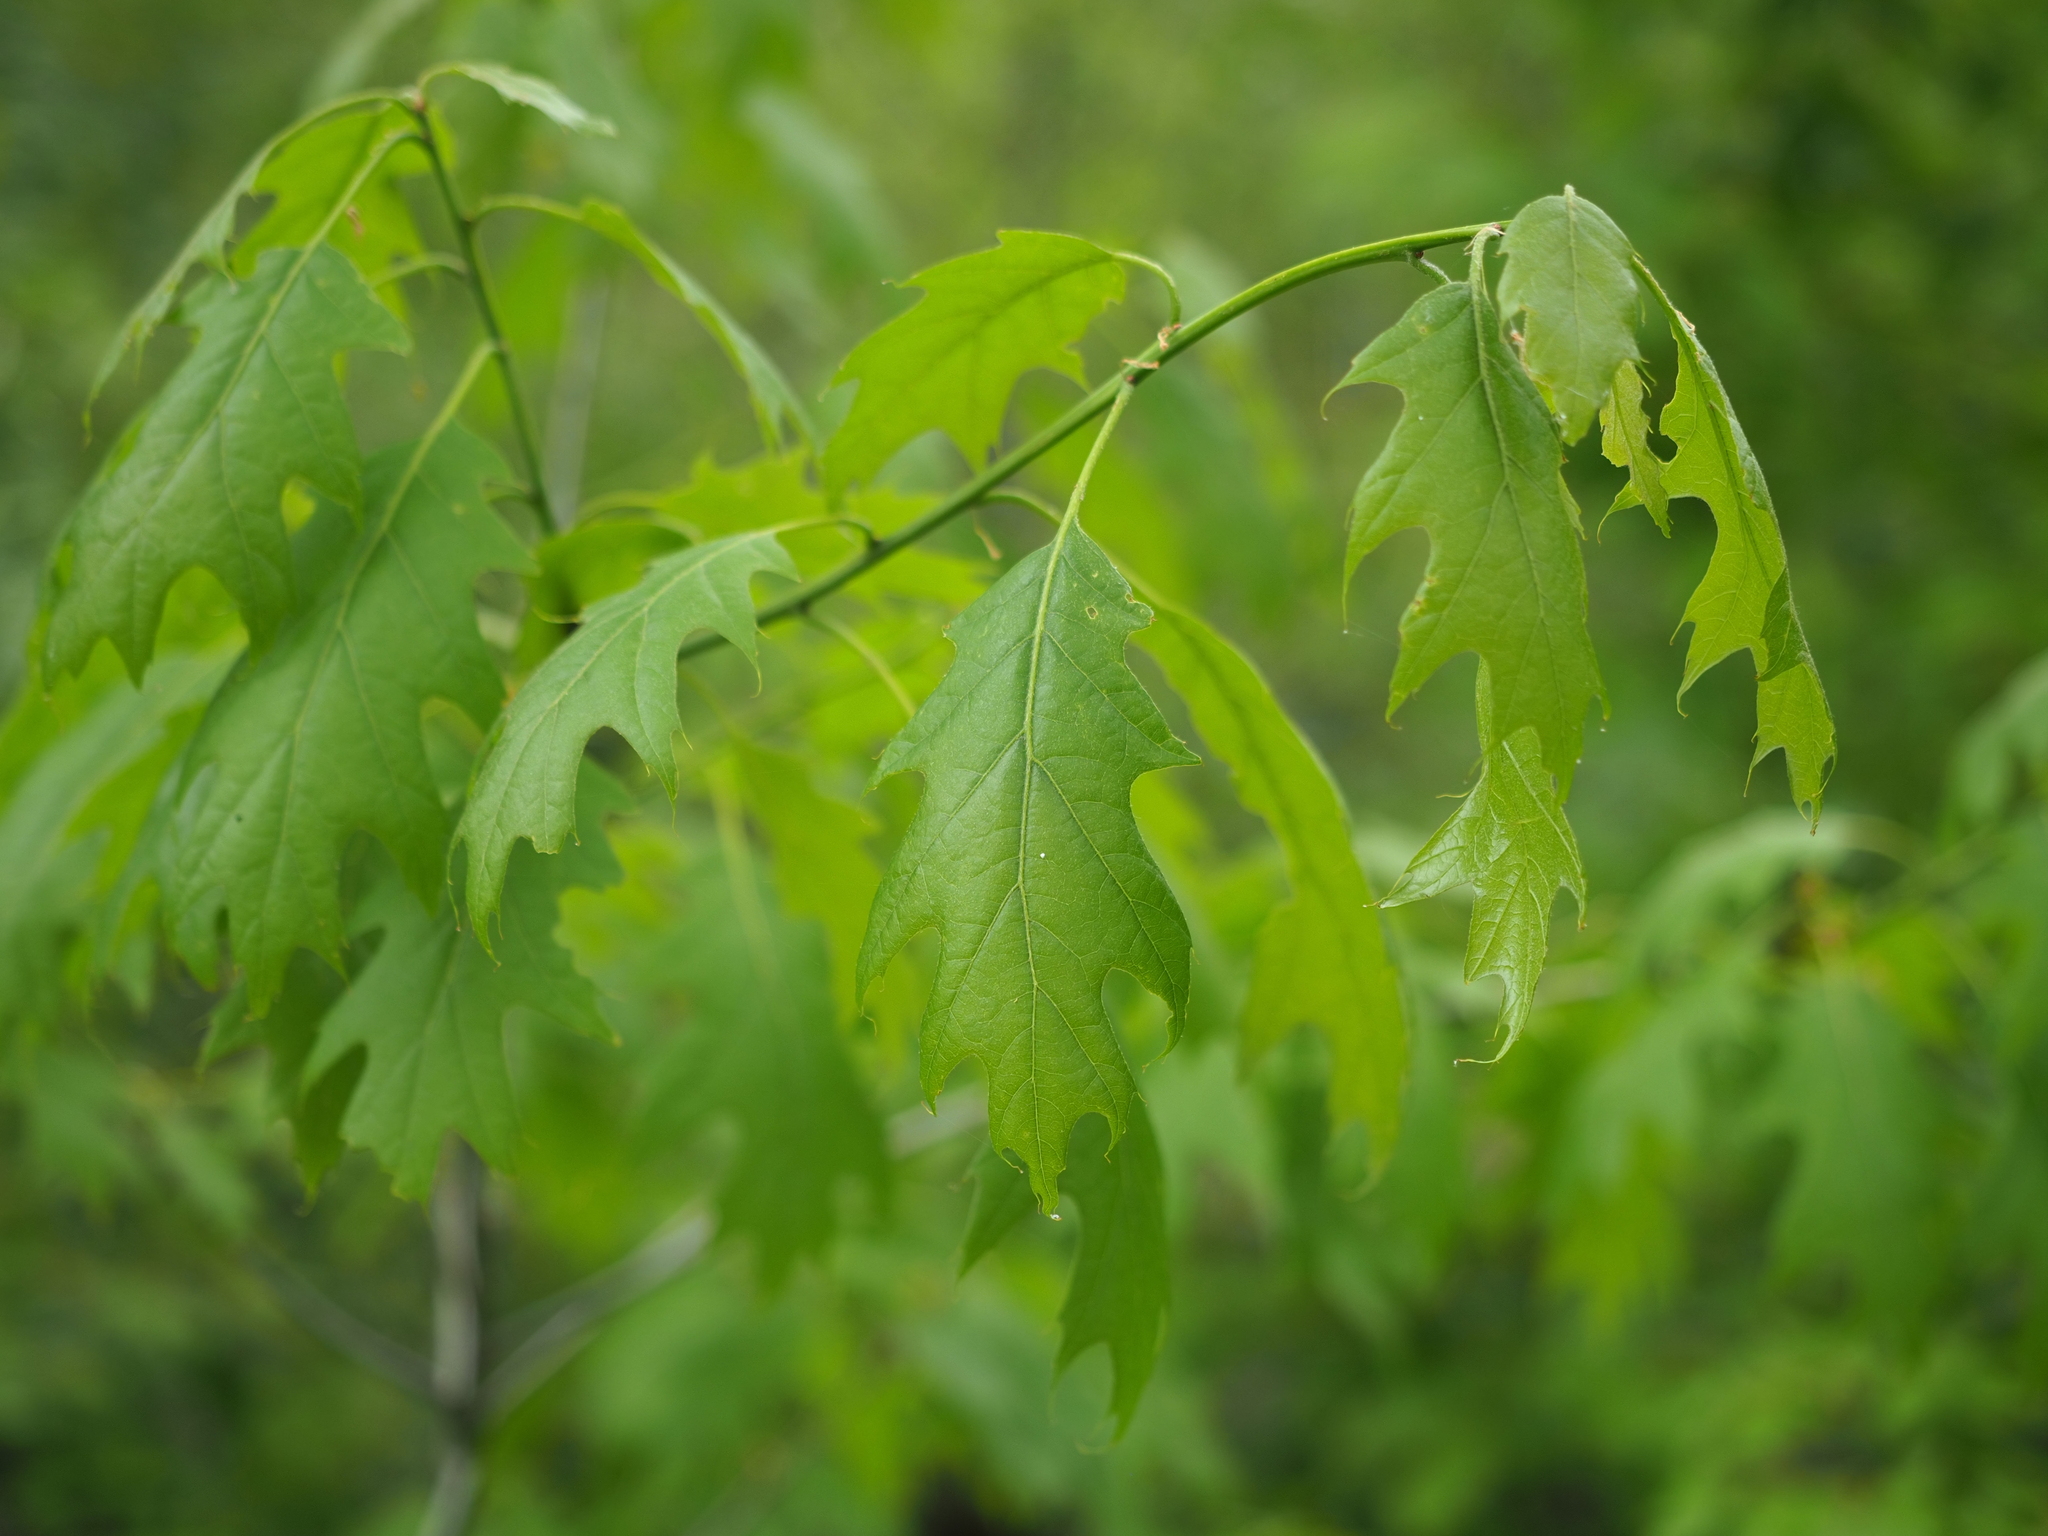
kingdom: Plantae
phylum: Tracheophyta
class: Magnoliopsida
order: Fagales
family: Fagaceae
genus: Quercus
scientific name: Quercus rubra
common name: Red oak
